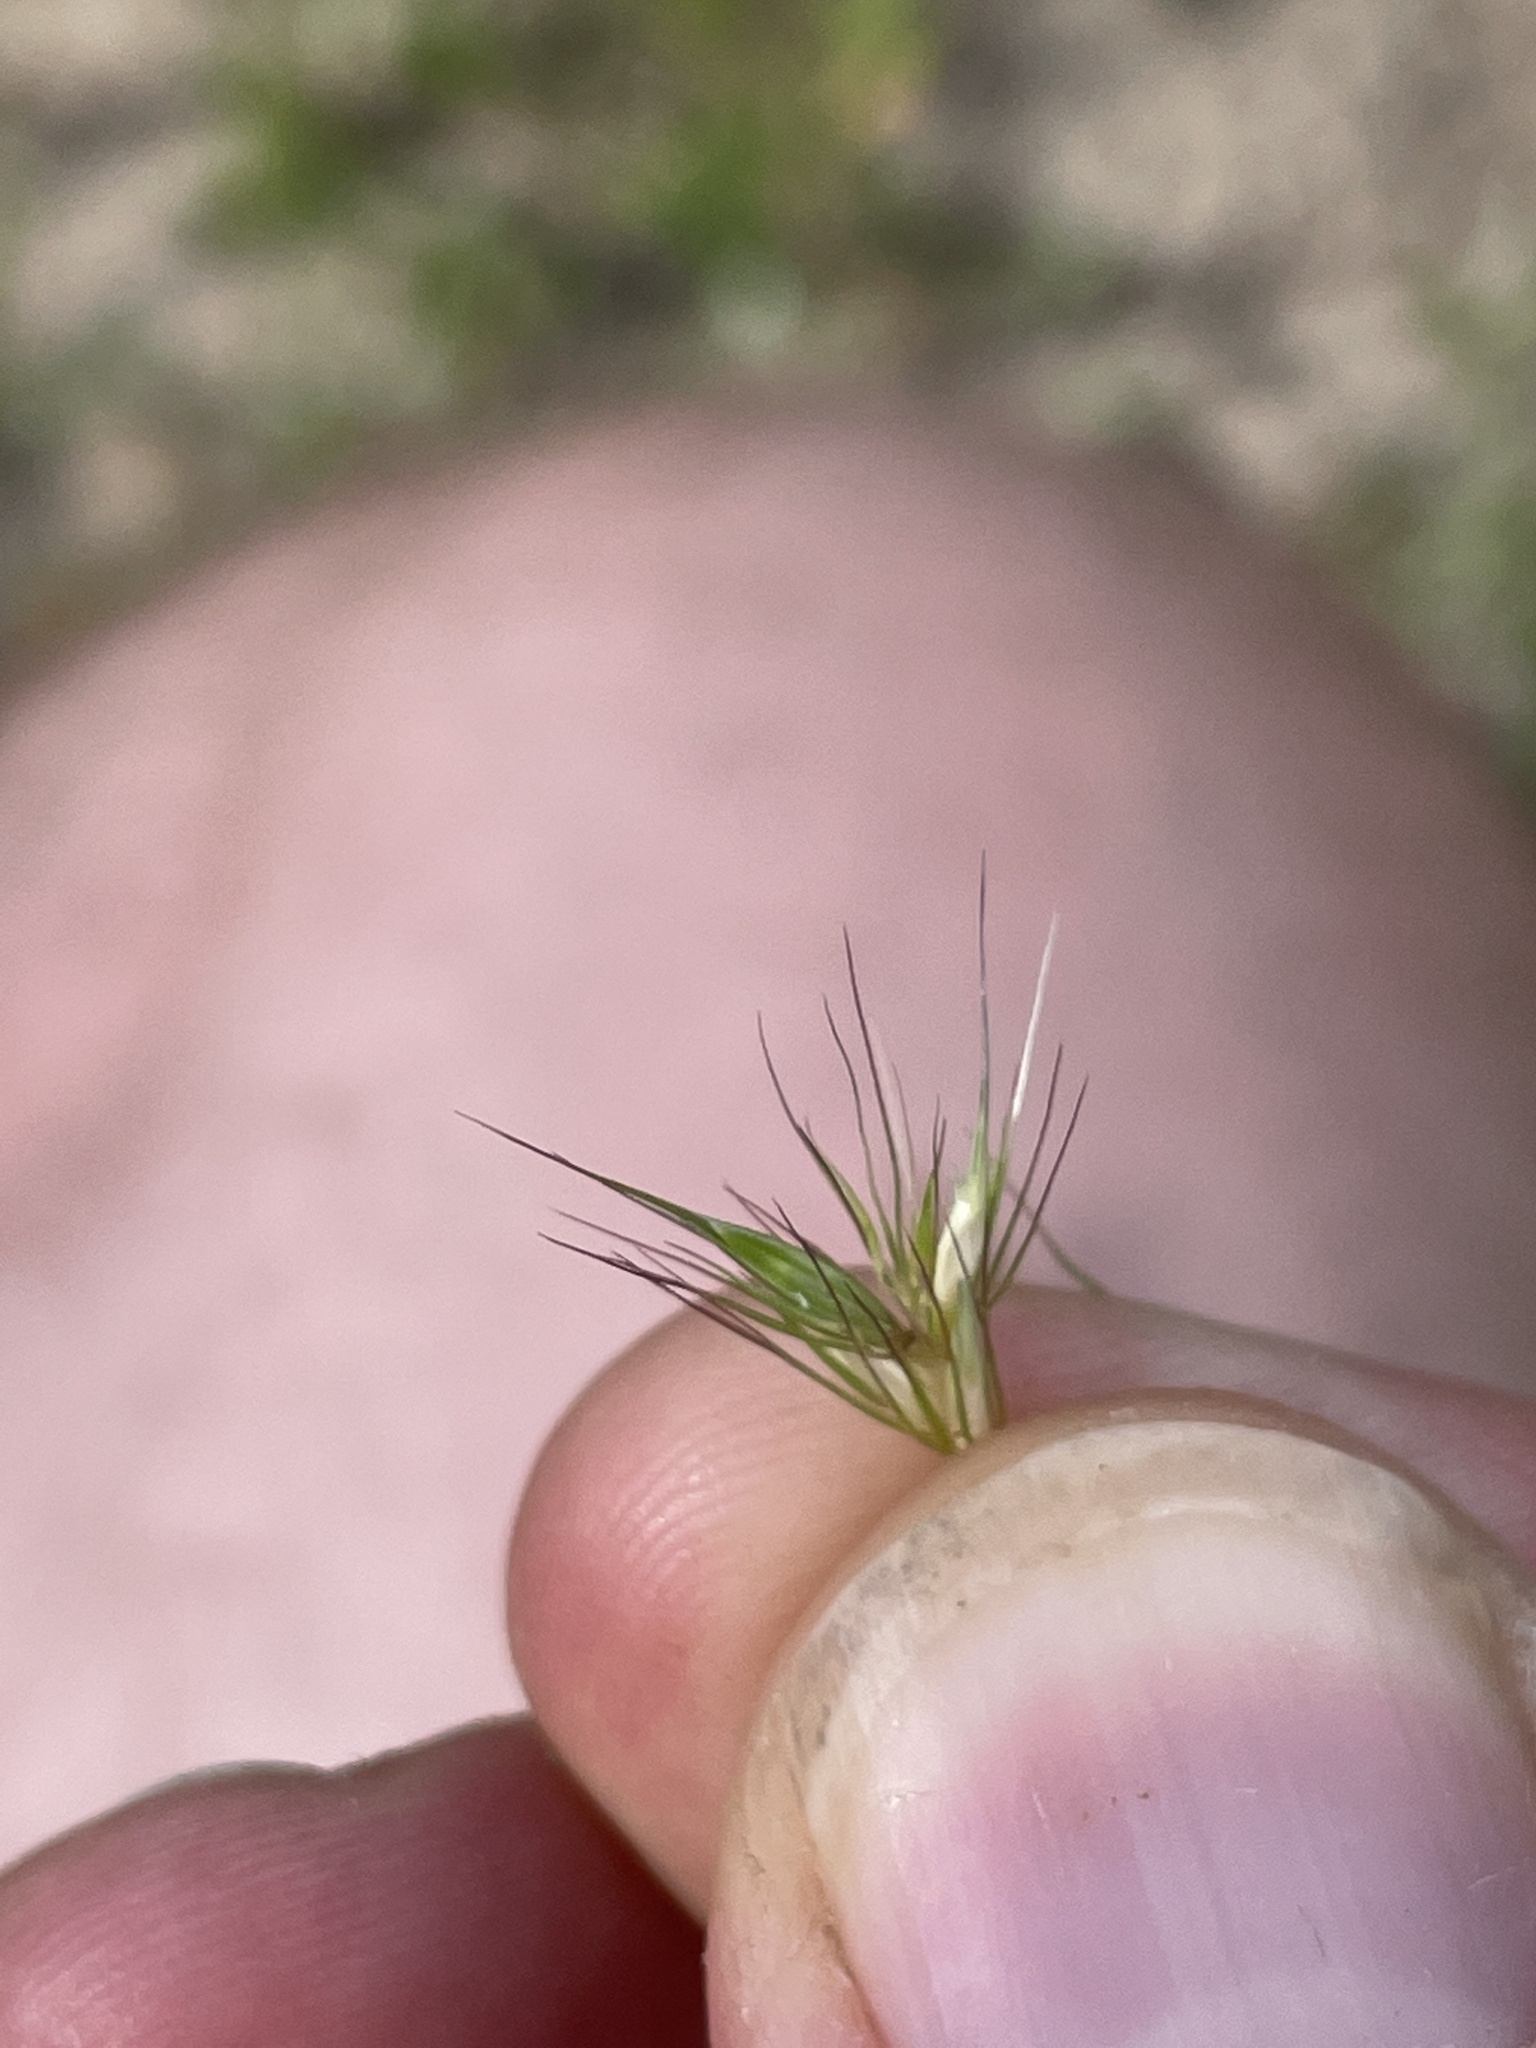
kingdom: Plantae
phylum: Tracheophyta
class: Liliopsida
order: Poales
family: Poaceae
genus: Hordeum
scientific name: Hordeum brachyantherum
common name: Meadow barley
